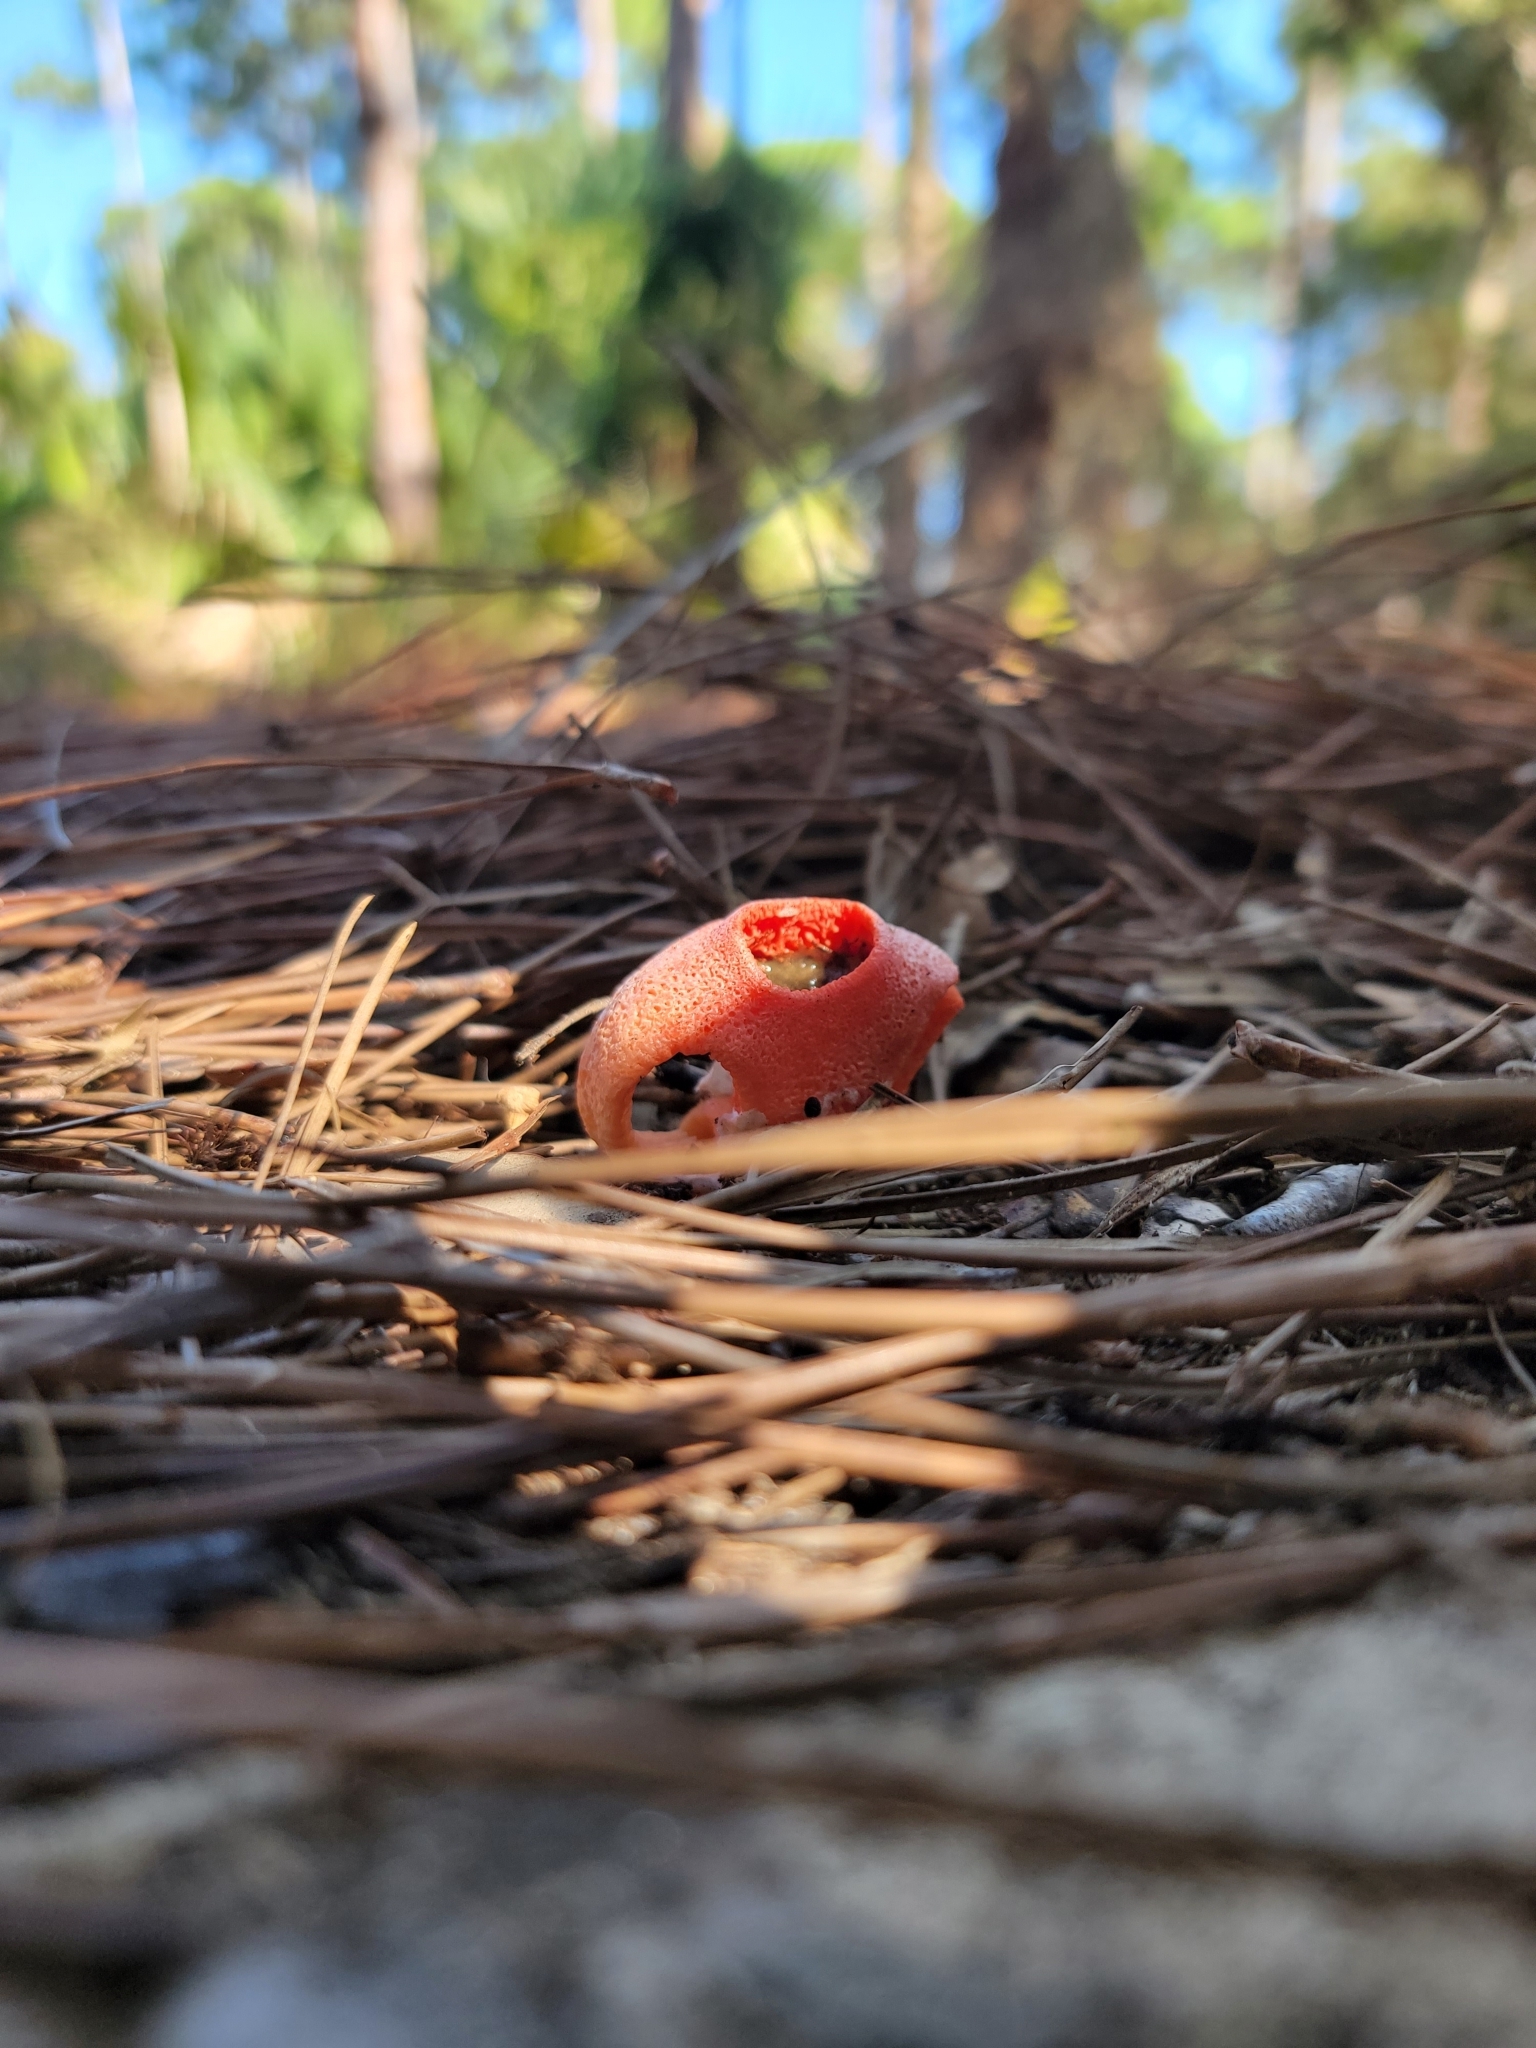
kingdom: Fungi
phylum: Basidiomycota
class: Agaricomycetes
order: Phallales
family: Phallaceae
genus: Clathrus
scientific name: Clathrus columnatus
